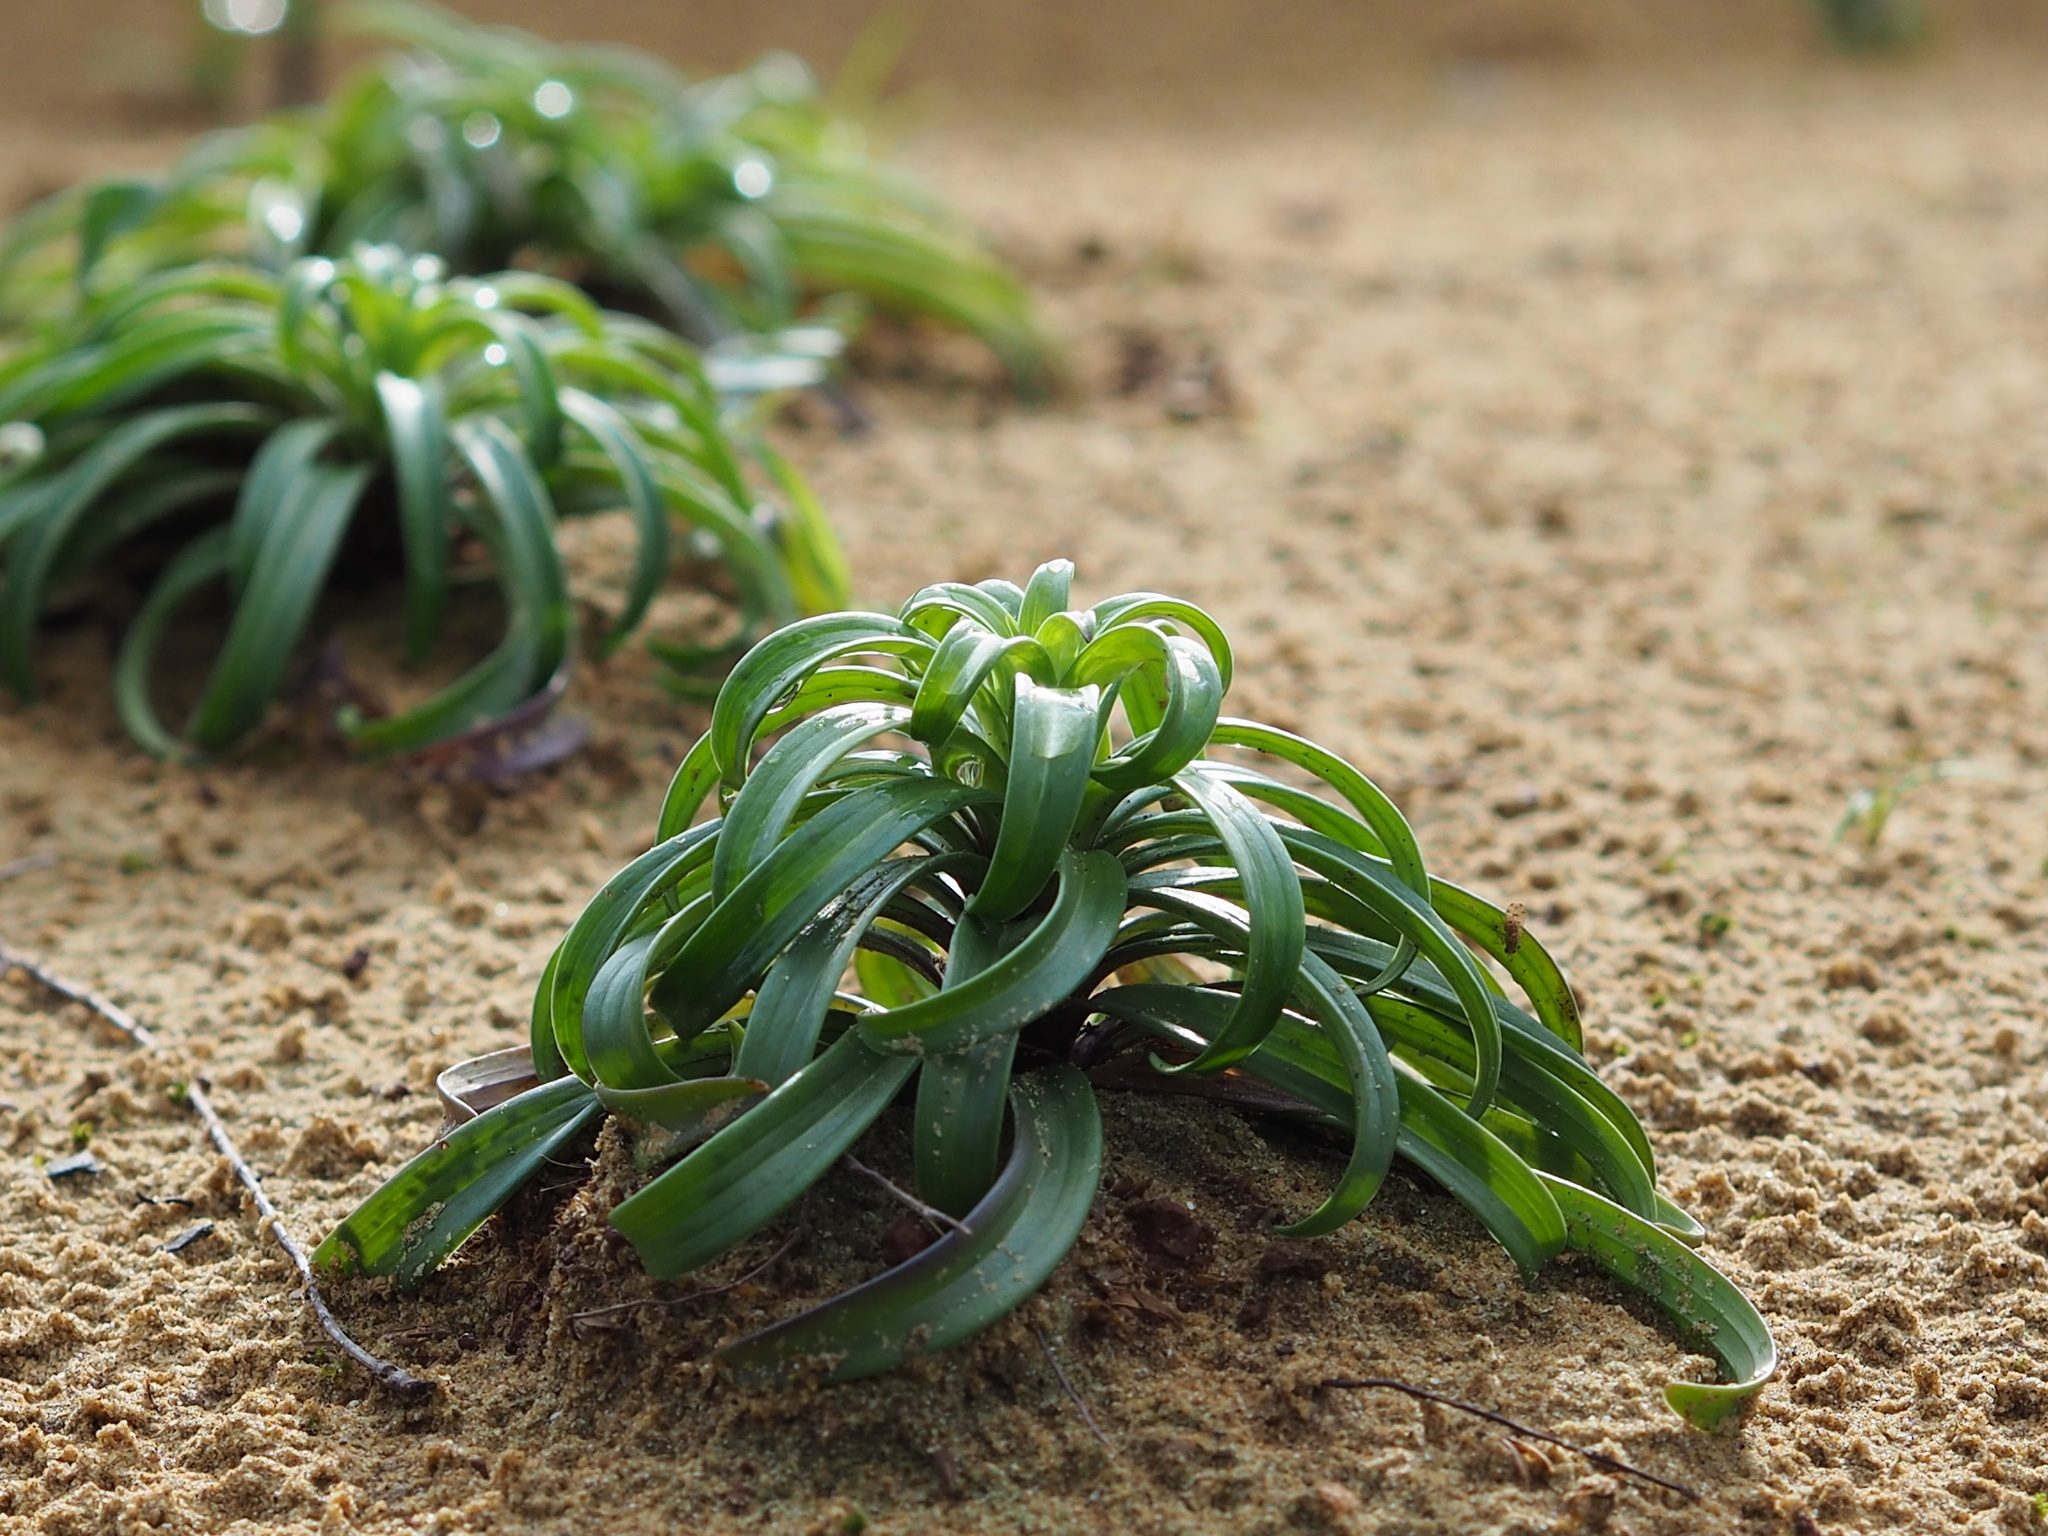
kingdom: Plantae
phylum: Tracheophyta
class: Liliopsida
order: Liliales
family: Liliaceae
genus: Lilium
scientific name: Lilium longiflorum
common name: Easter lily
